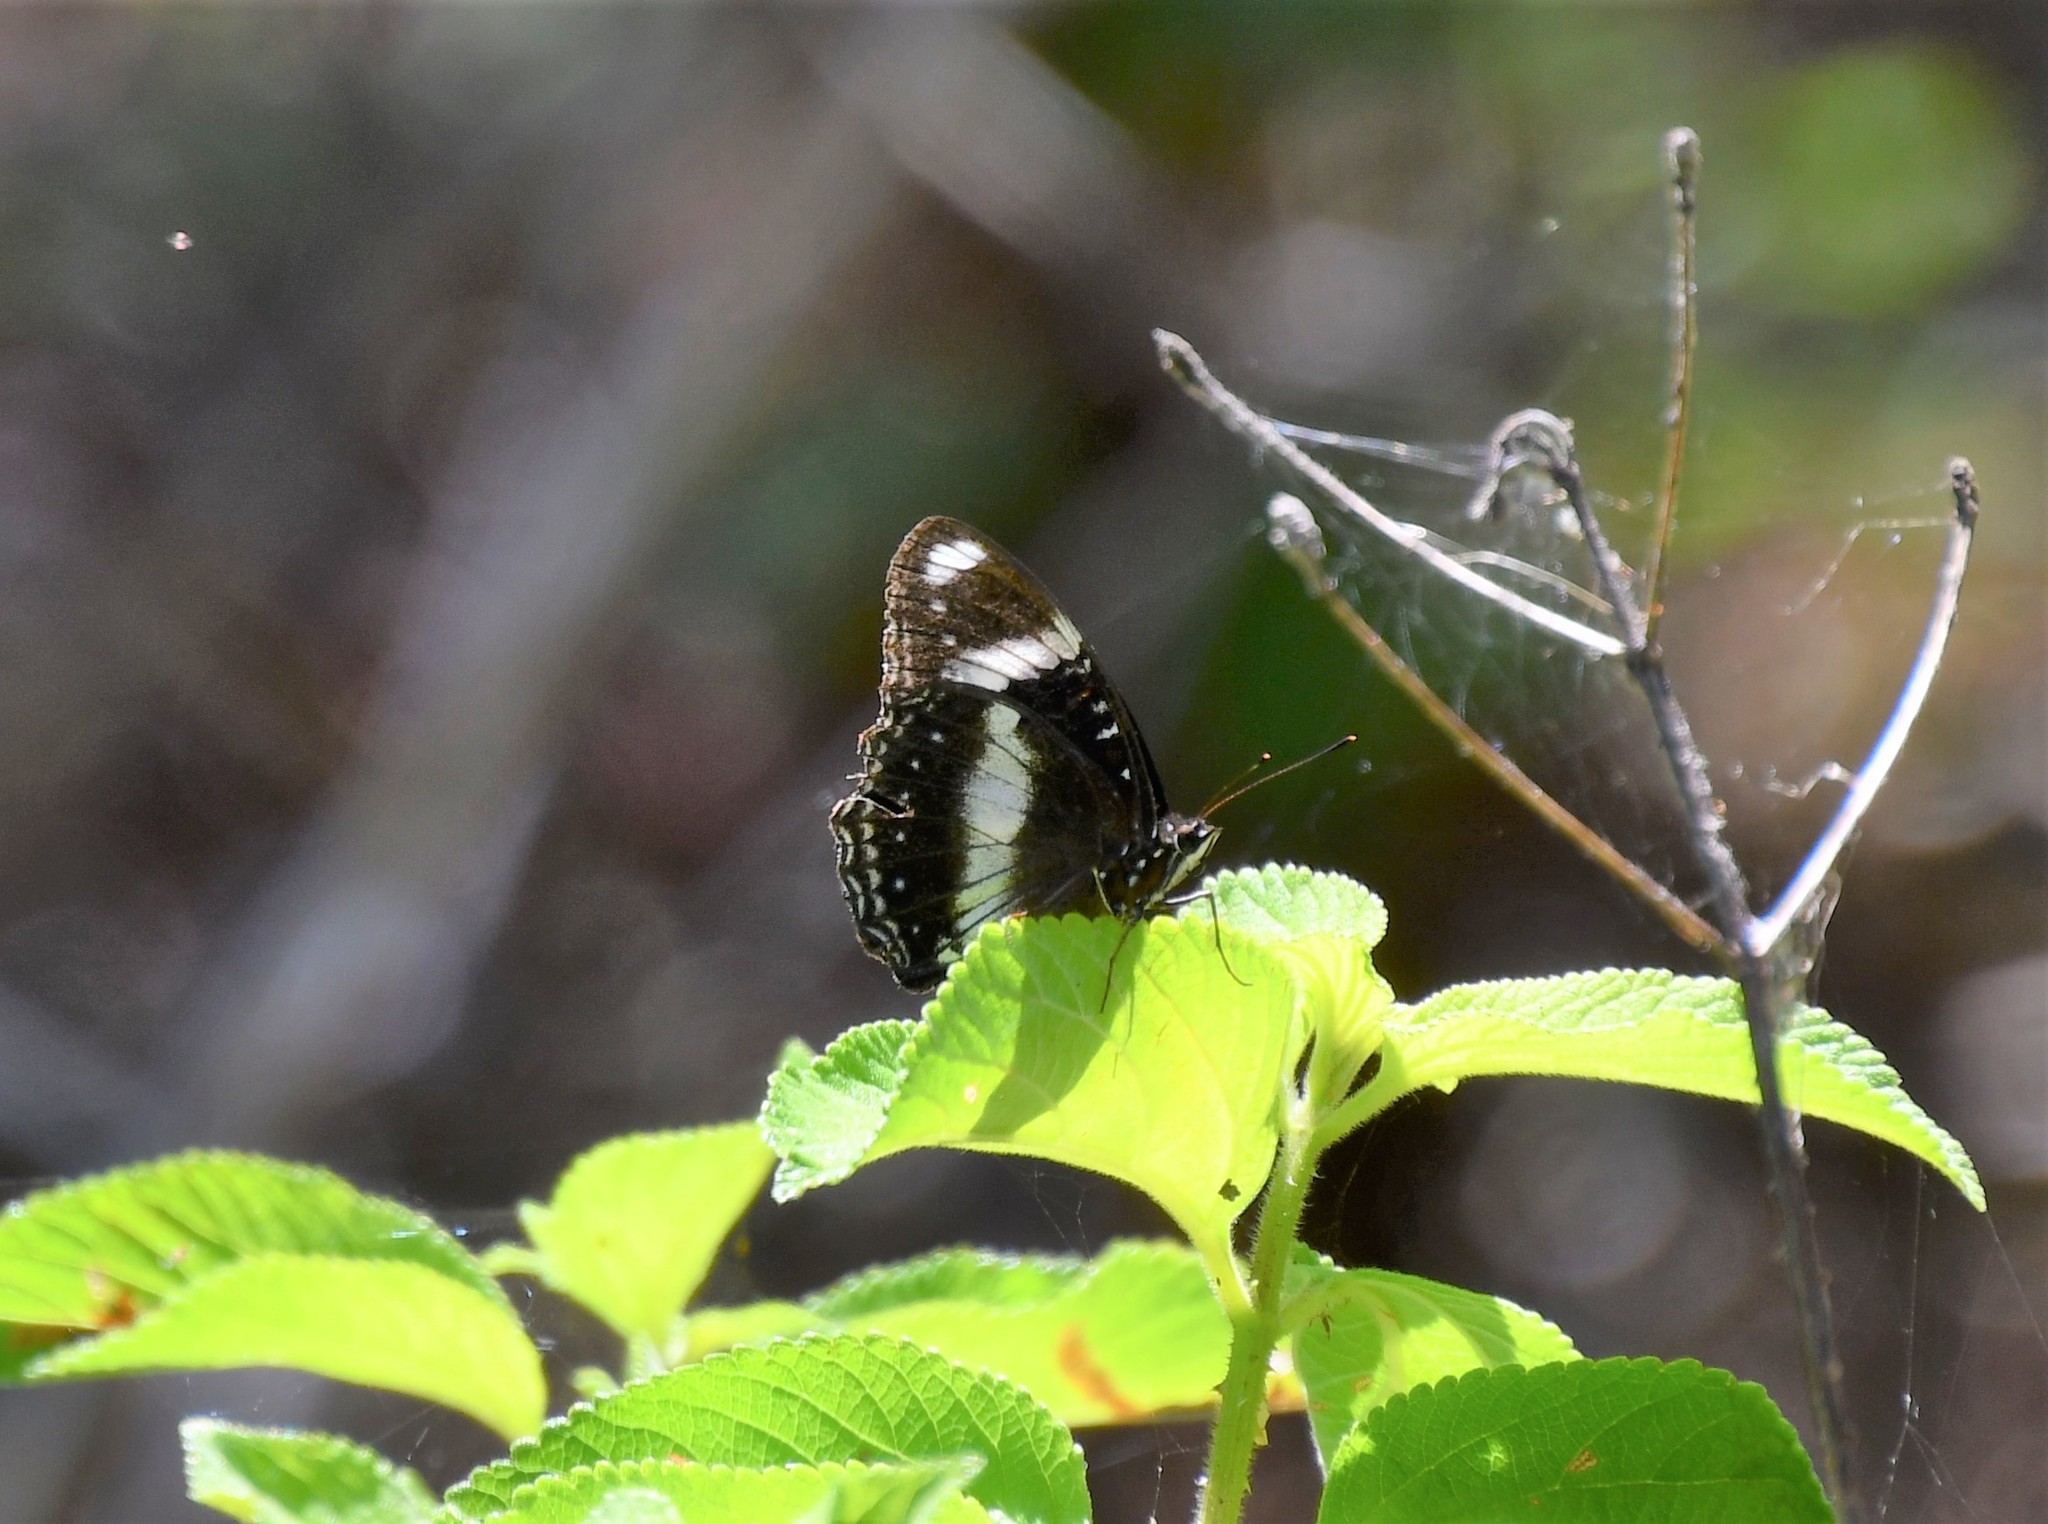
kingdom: Animalia
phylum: Arthropoda
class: Insecta
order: Lepidoptera
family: Nymphalidae
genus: Hypolimnas
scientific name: Hypolimnas bolina
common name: Great eggfly
